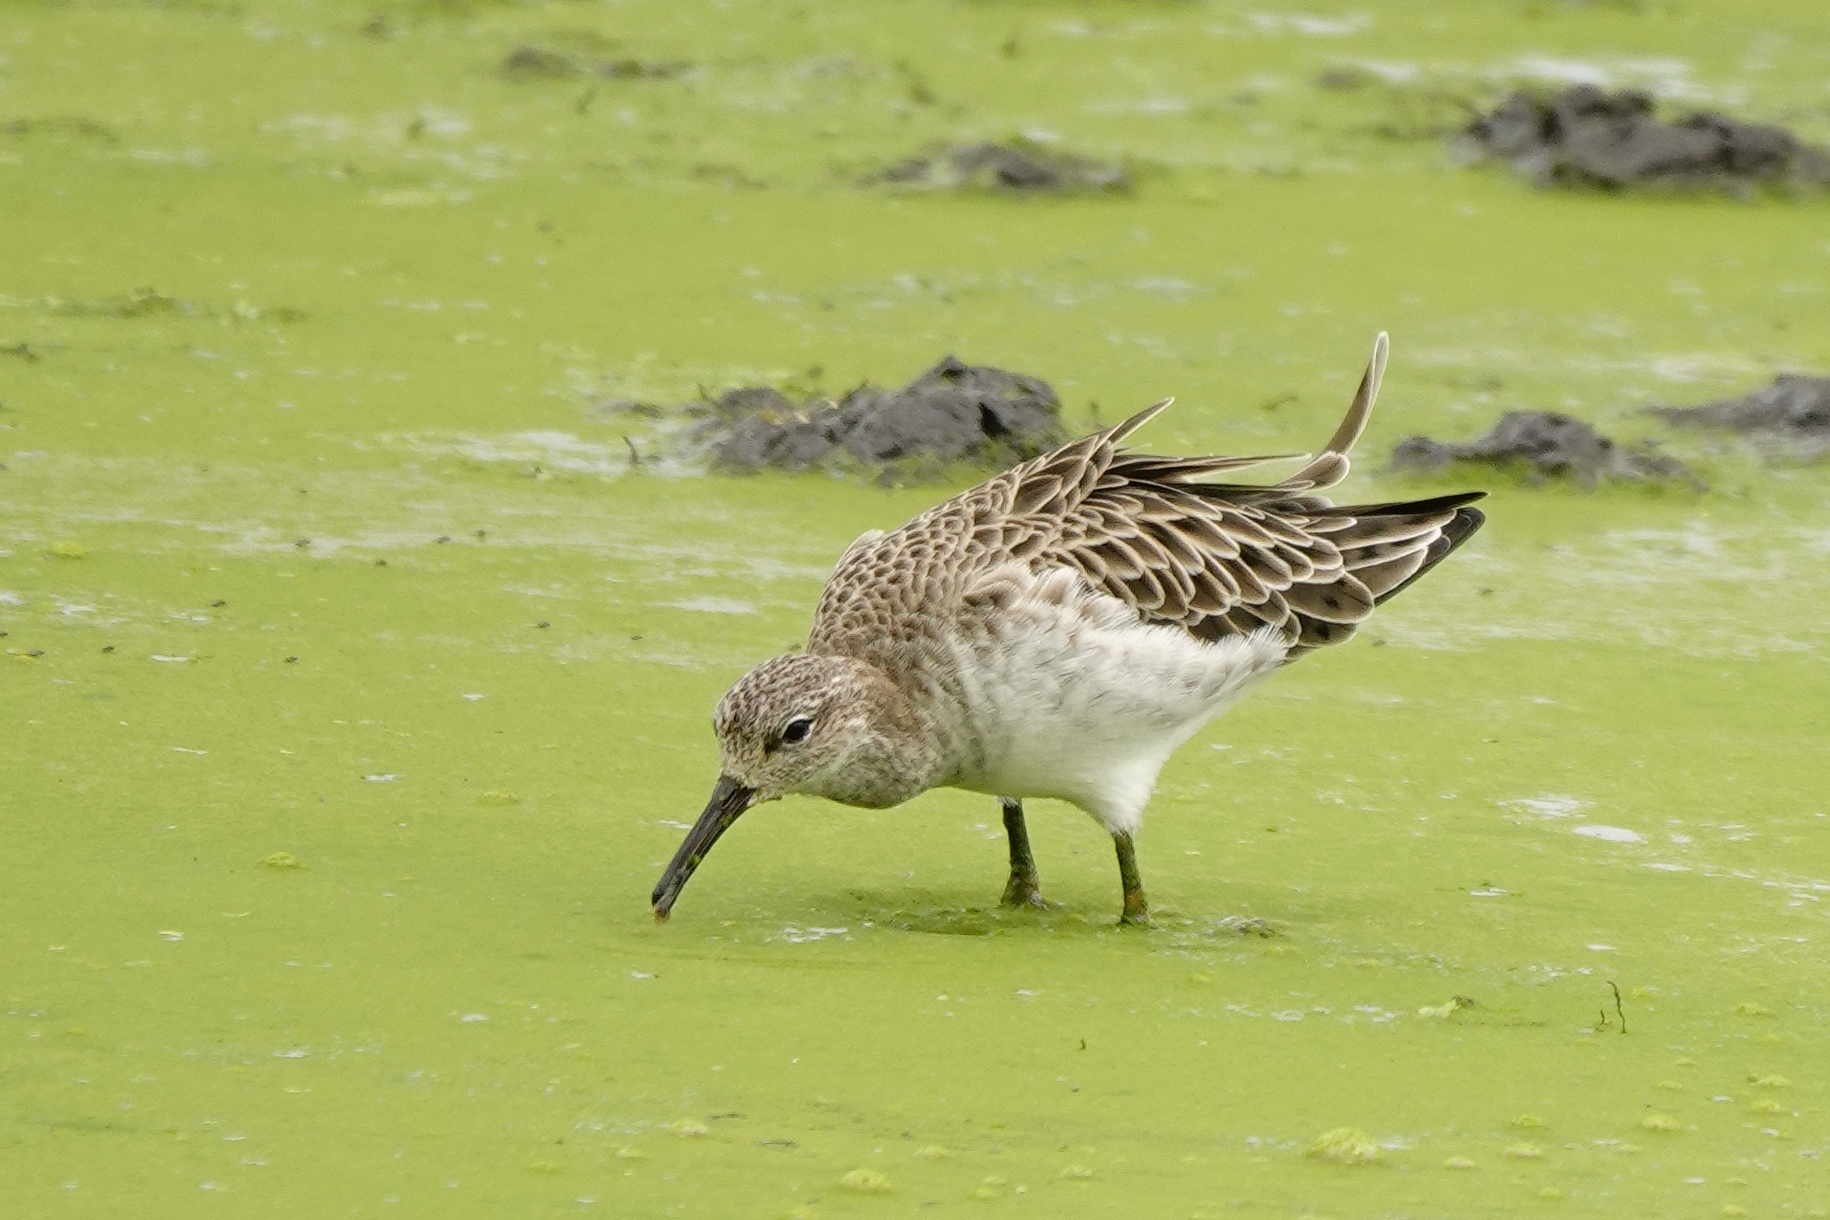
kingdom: Animalia
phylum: Chordata
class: Aves
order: Charadriiformes
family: Scolopacidae
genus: Calidris
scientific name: Calidris pugnax
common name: Ruff
